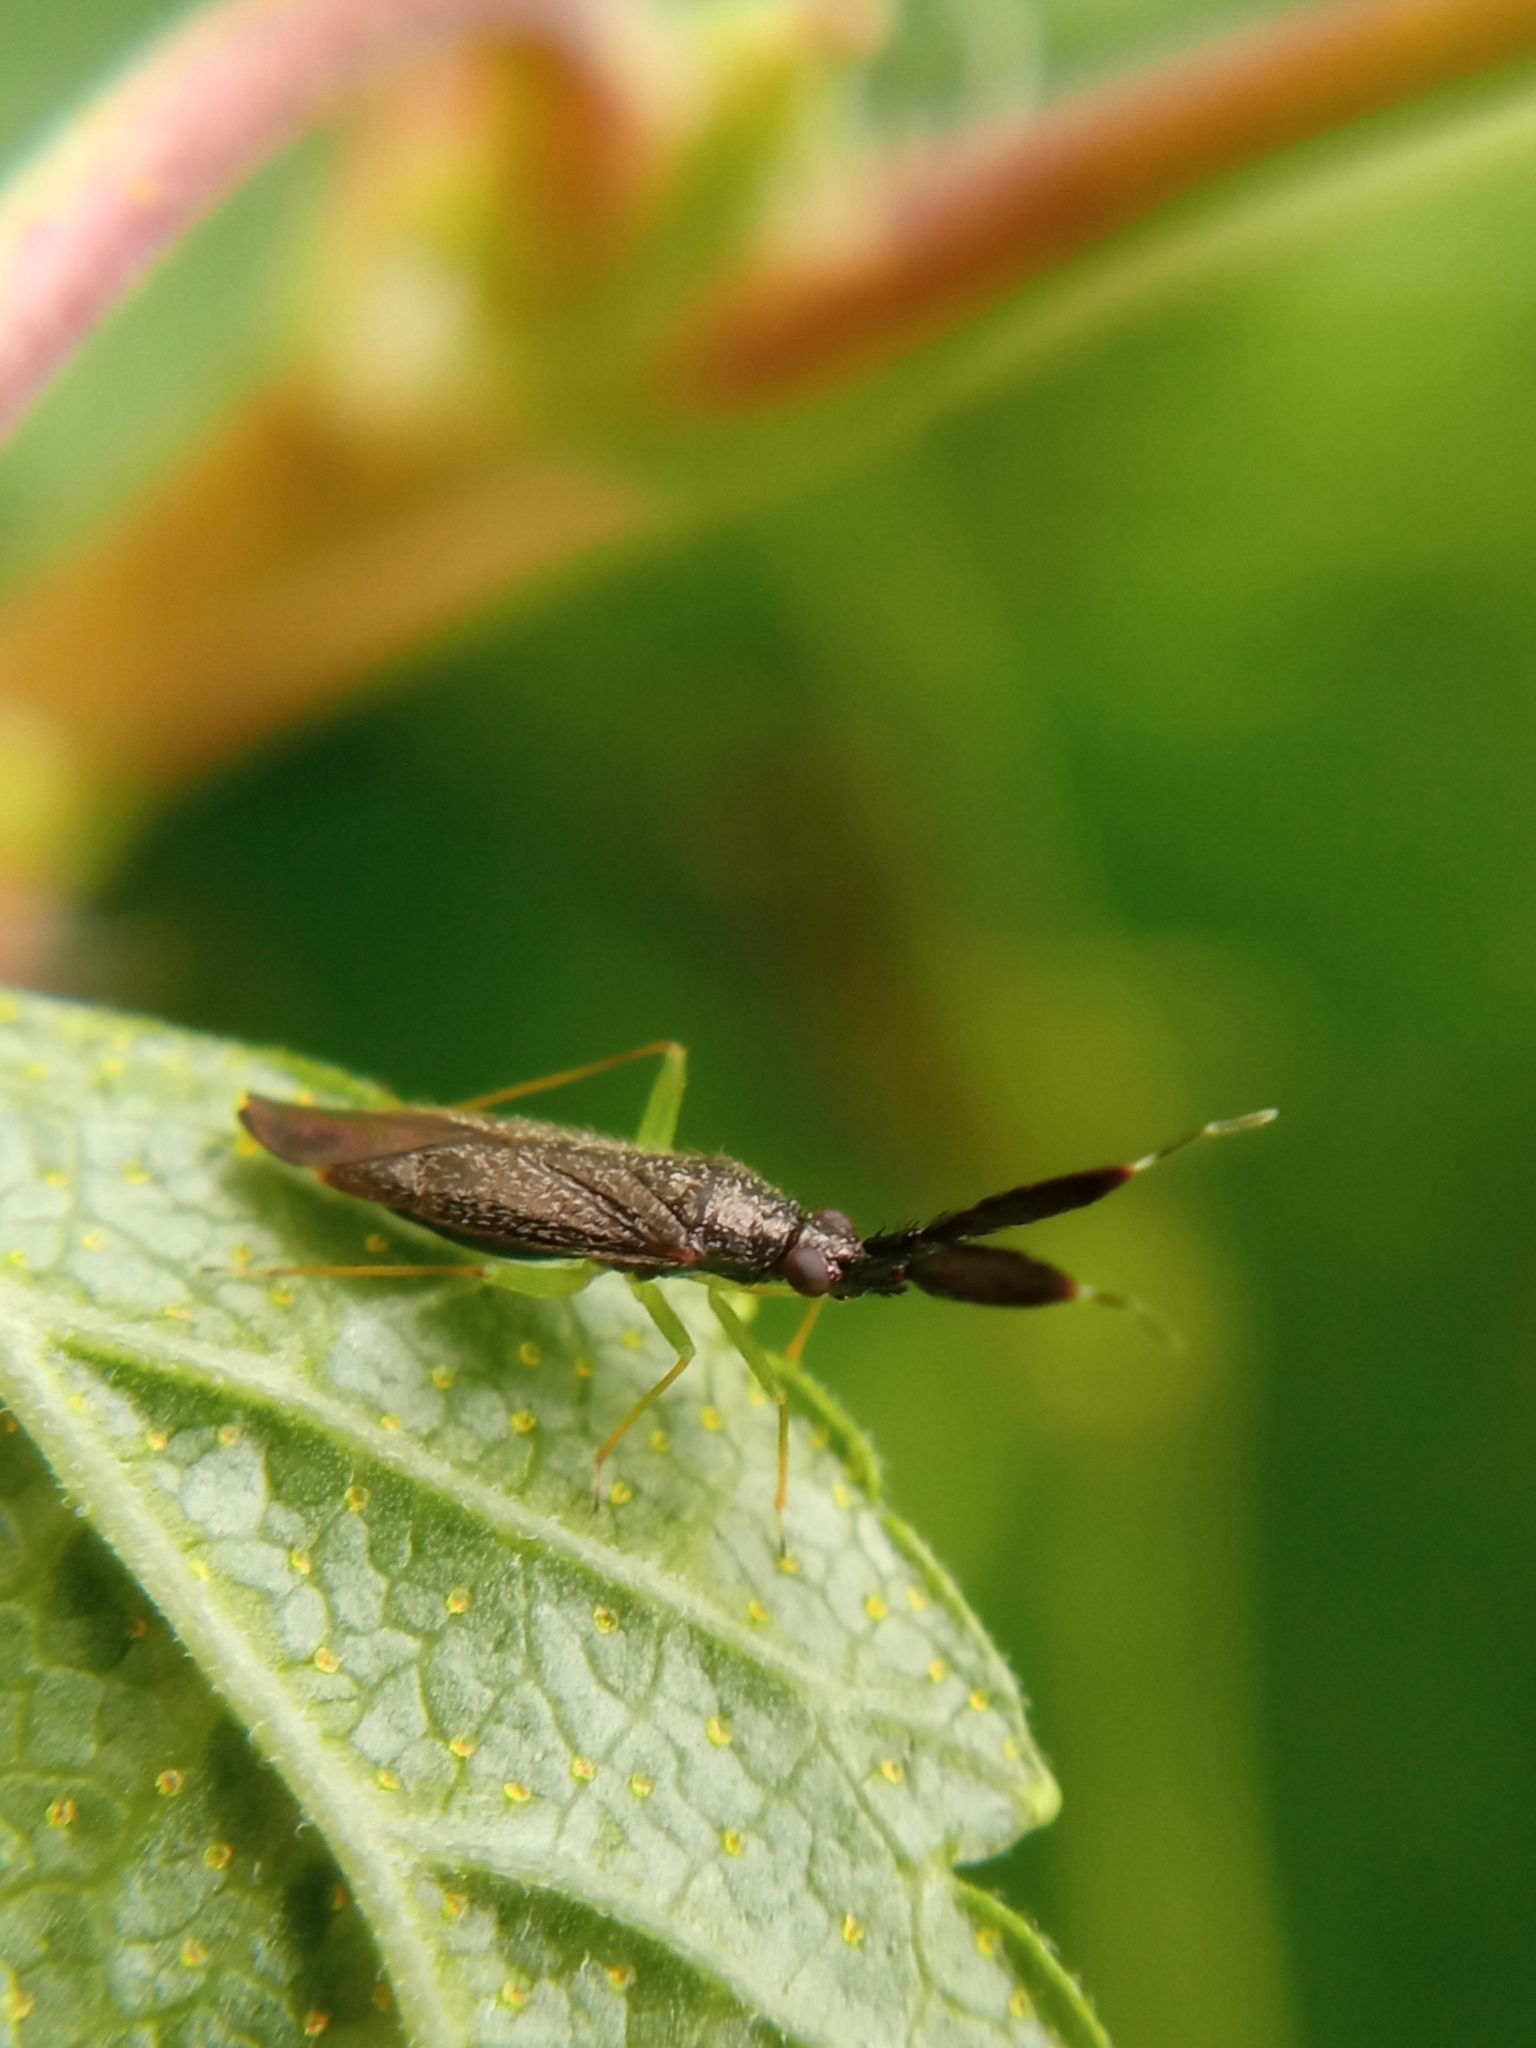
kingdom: Animalia
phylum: Arthropoda
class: Insecta
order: Hemiptera
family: Miridae
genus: Heterotoma
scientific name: Heterotoma planicornis
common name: Plant bug
